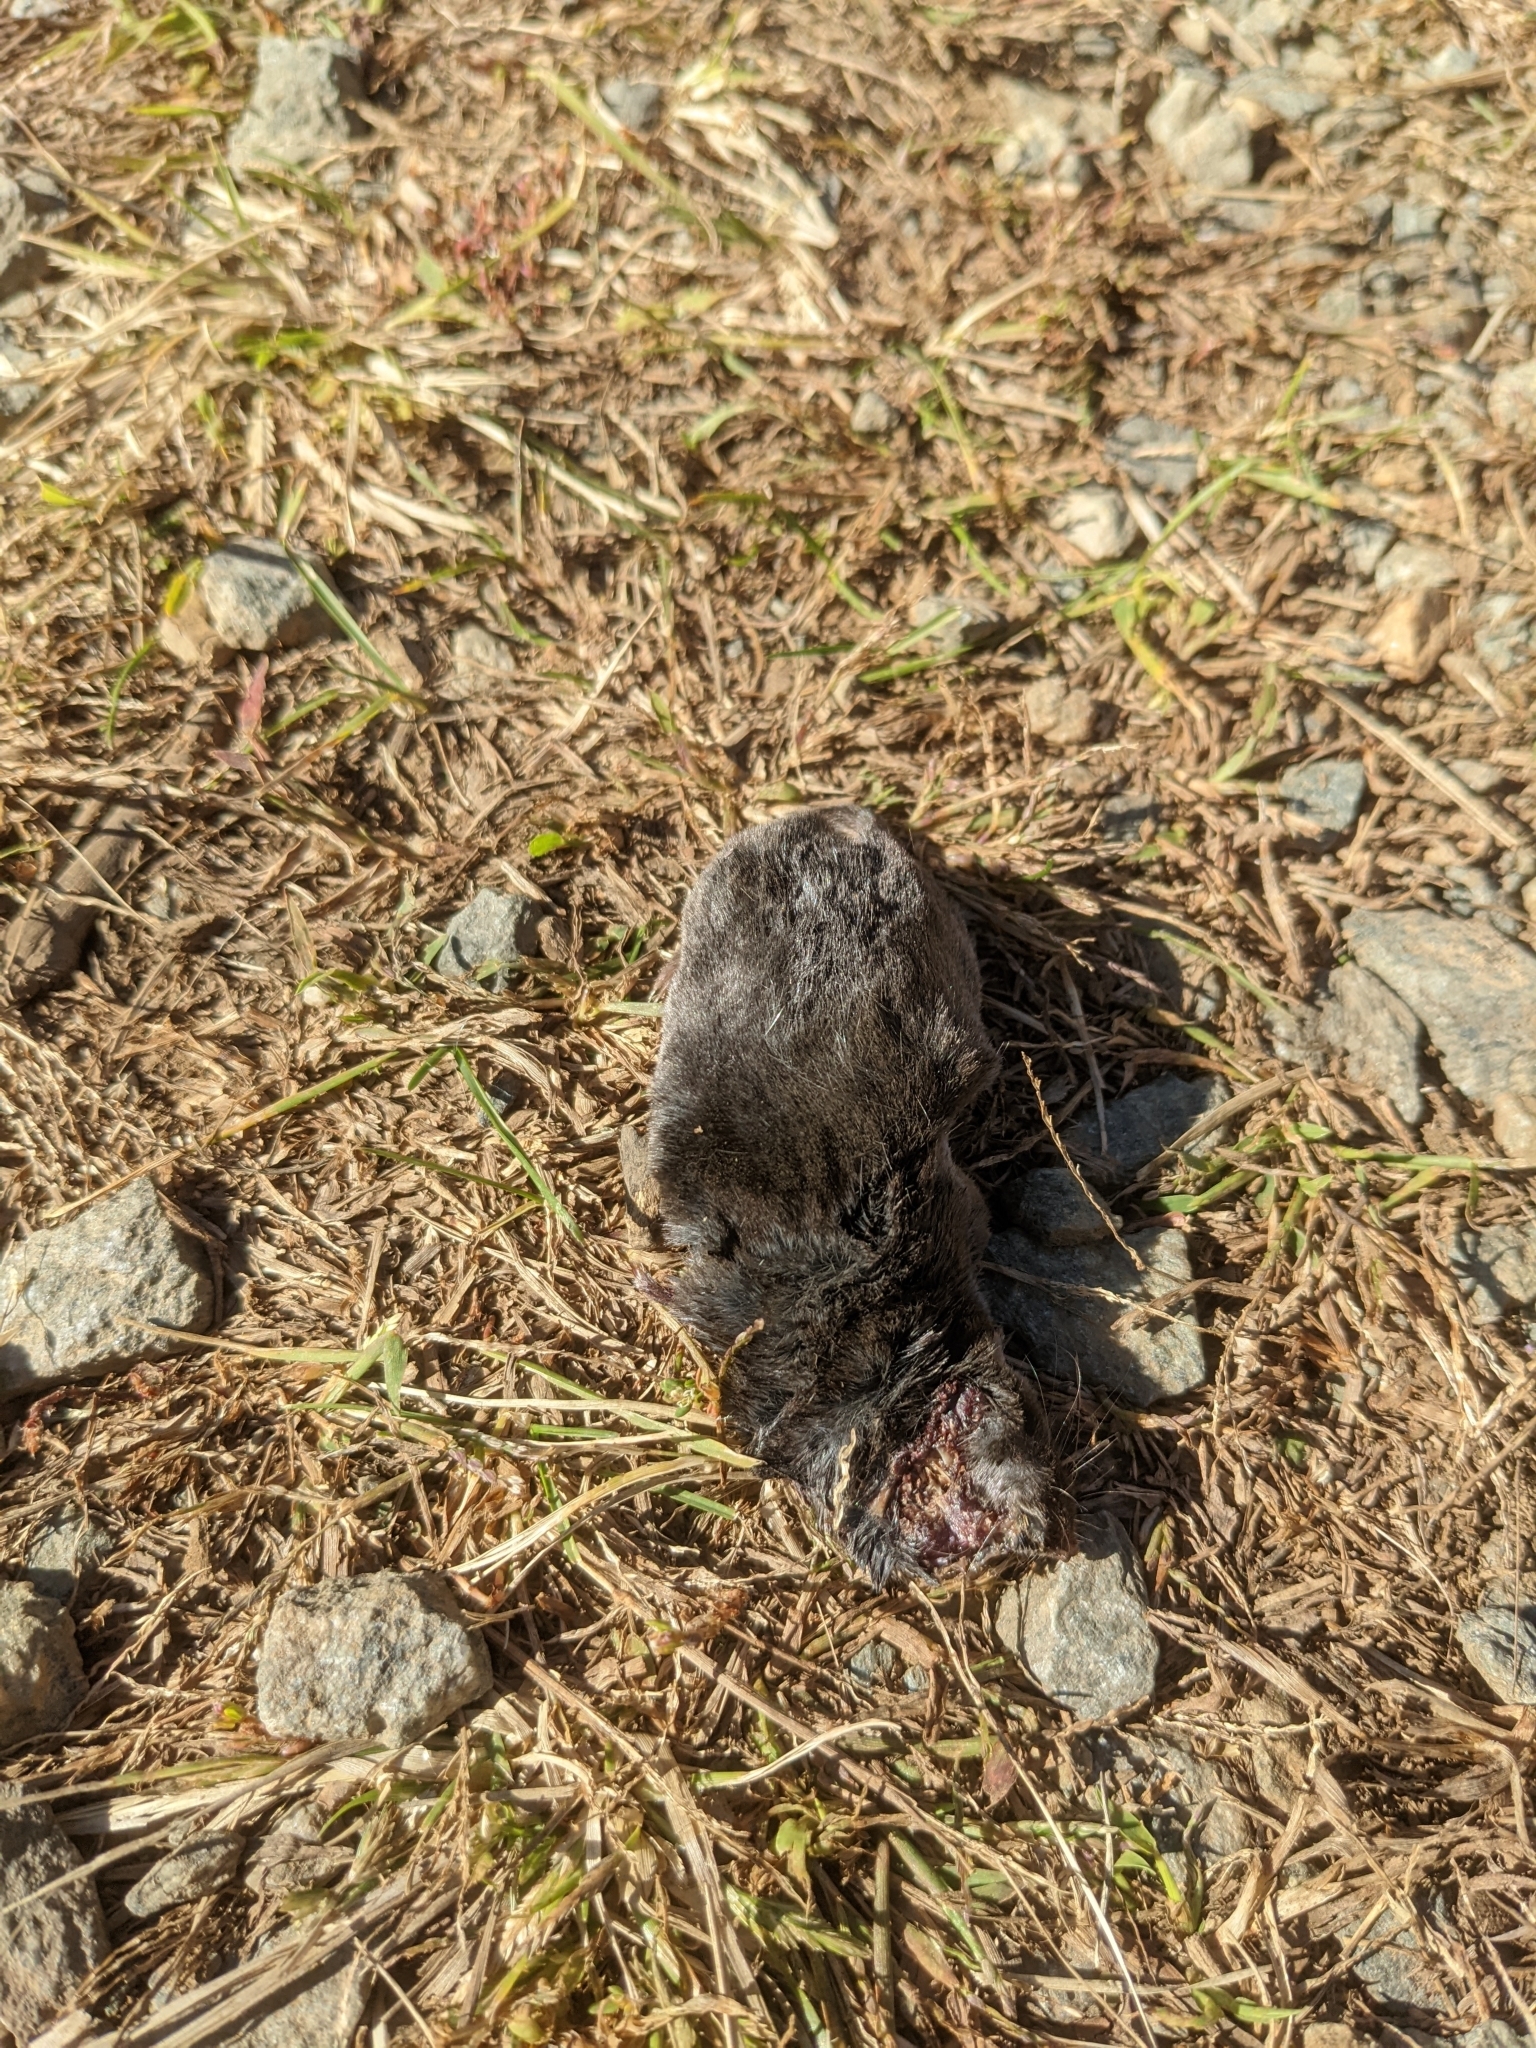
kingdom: Animalia
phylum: Chordata
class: Mammalia
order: Soricomorpha
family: Soricidae
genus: Blarina
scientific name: Blarina brevicauda
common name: Northern short-tailed shrew
